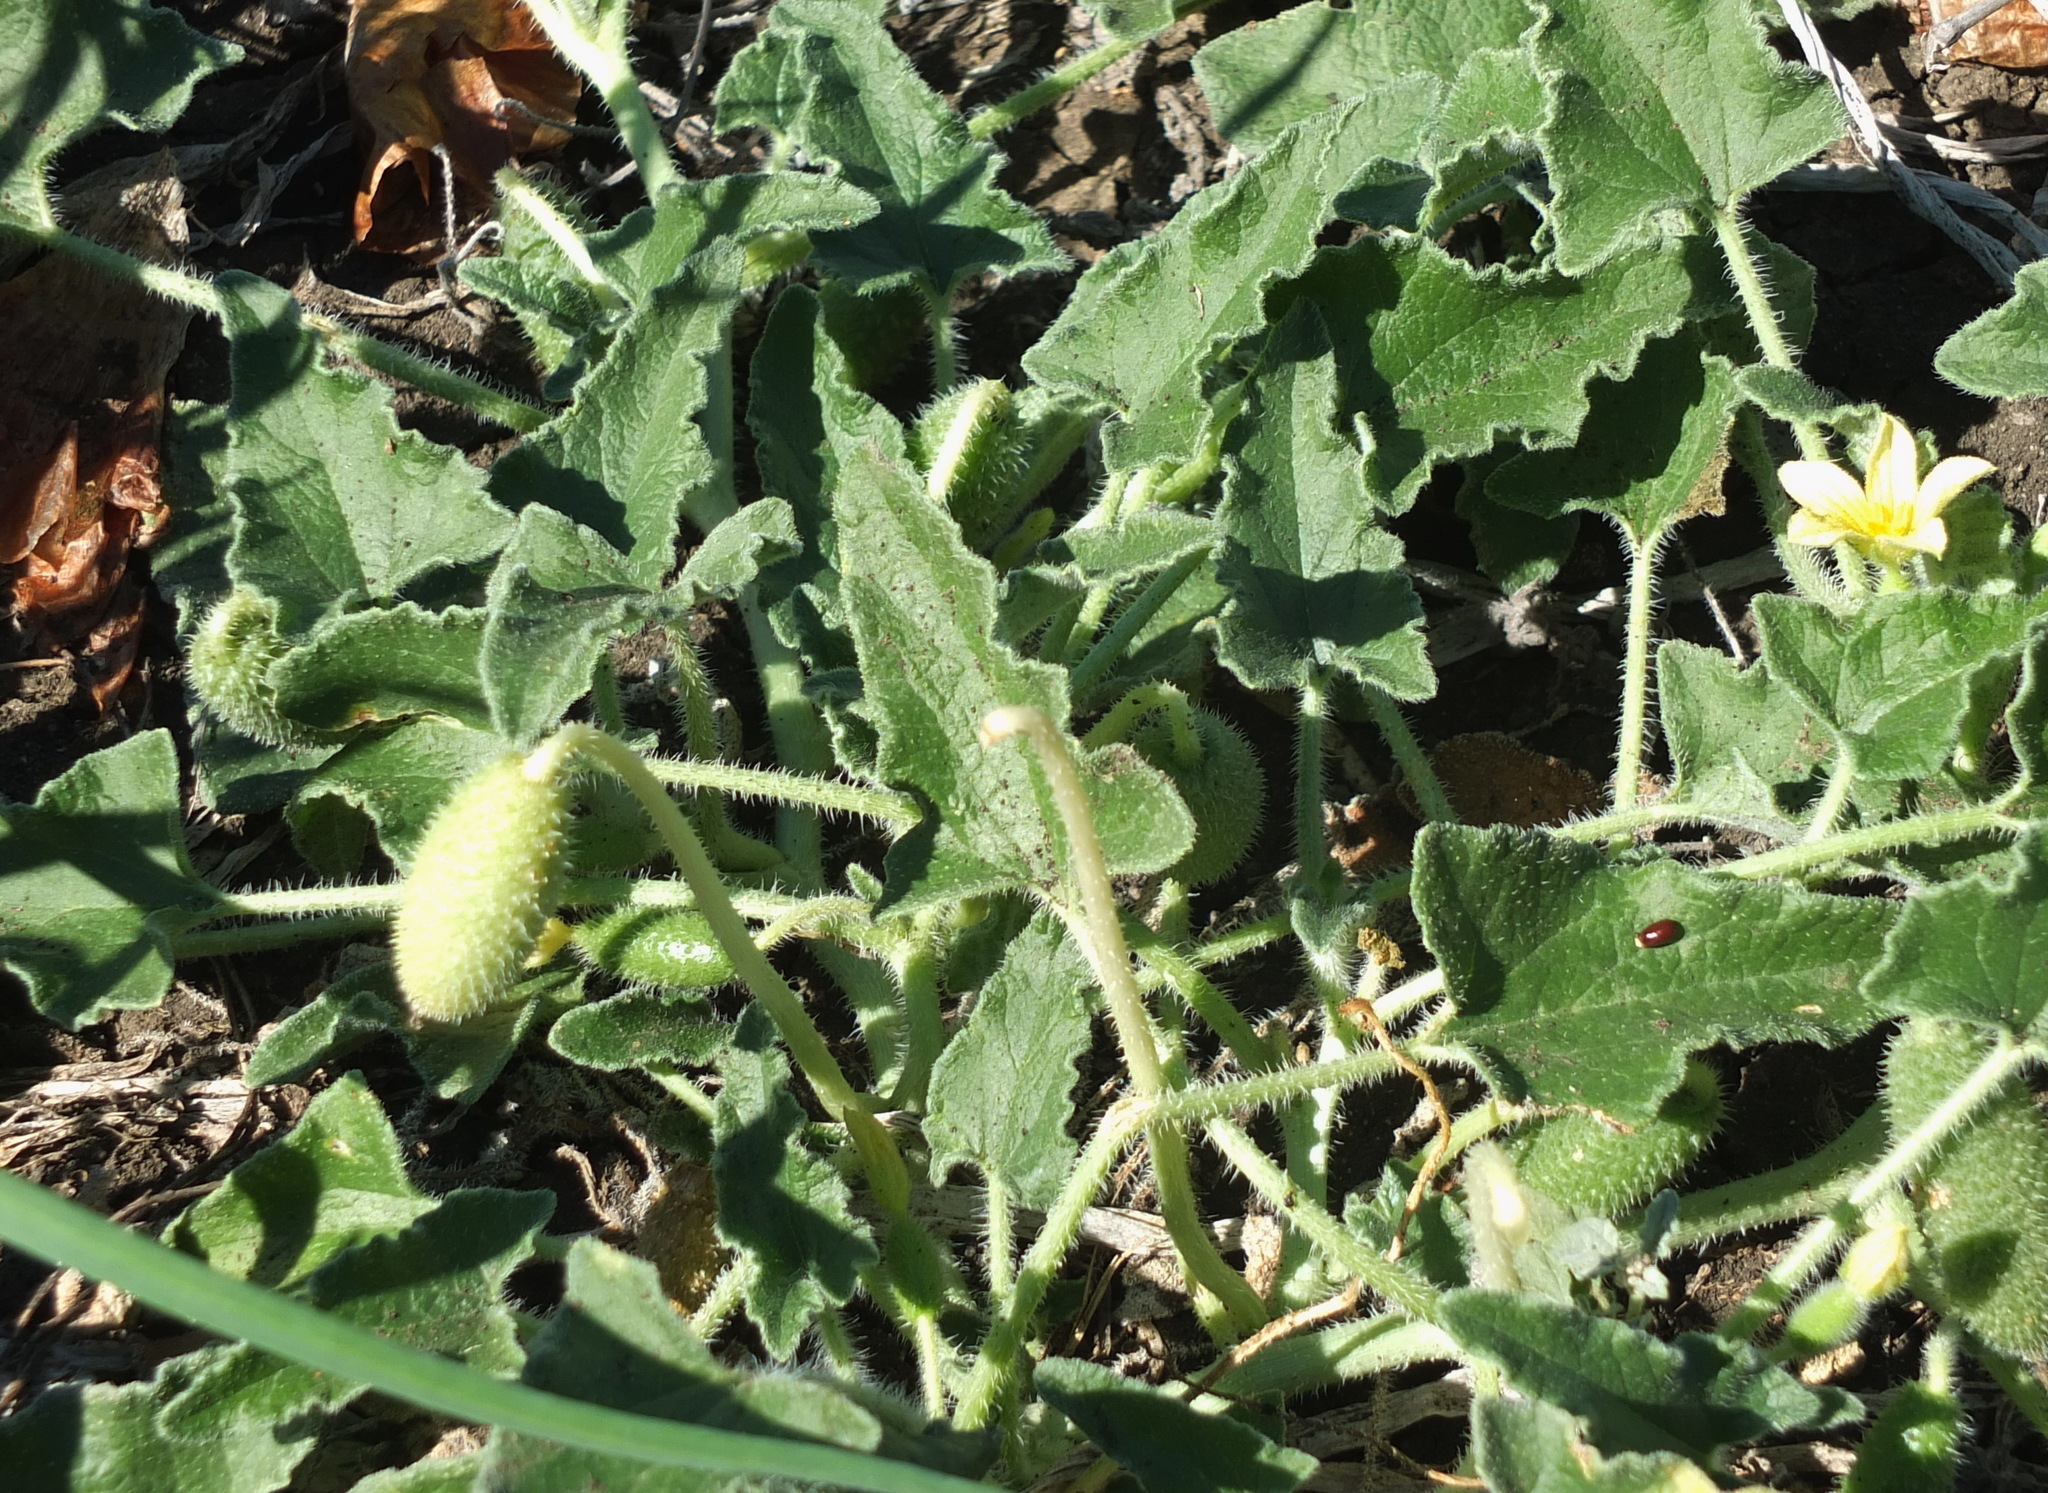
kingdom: Plantae
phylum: Tracheophyta
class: Magnoliopsida
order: Cucurbitales
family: Cucurbitaceae
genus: Ecballium
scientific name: Ecballium elaterium
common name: Squirting cucumber
